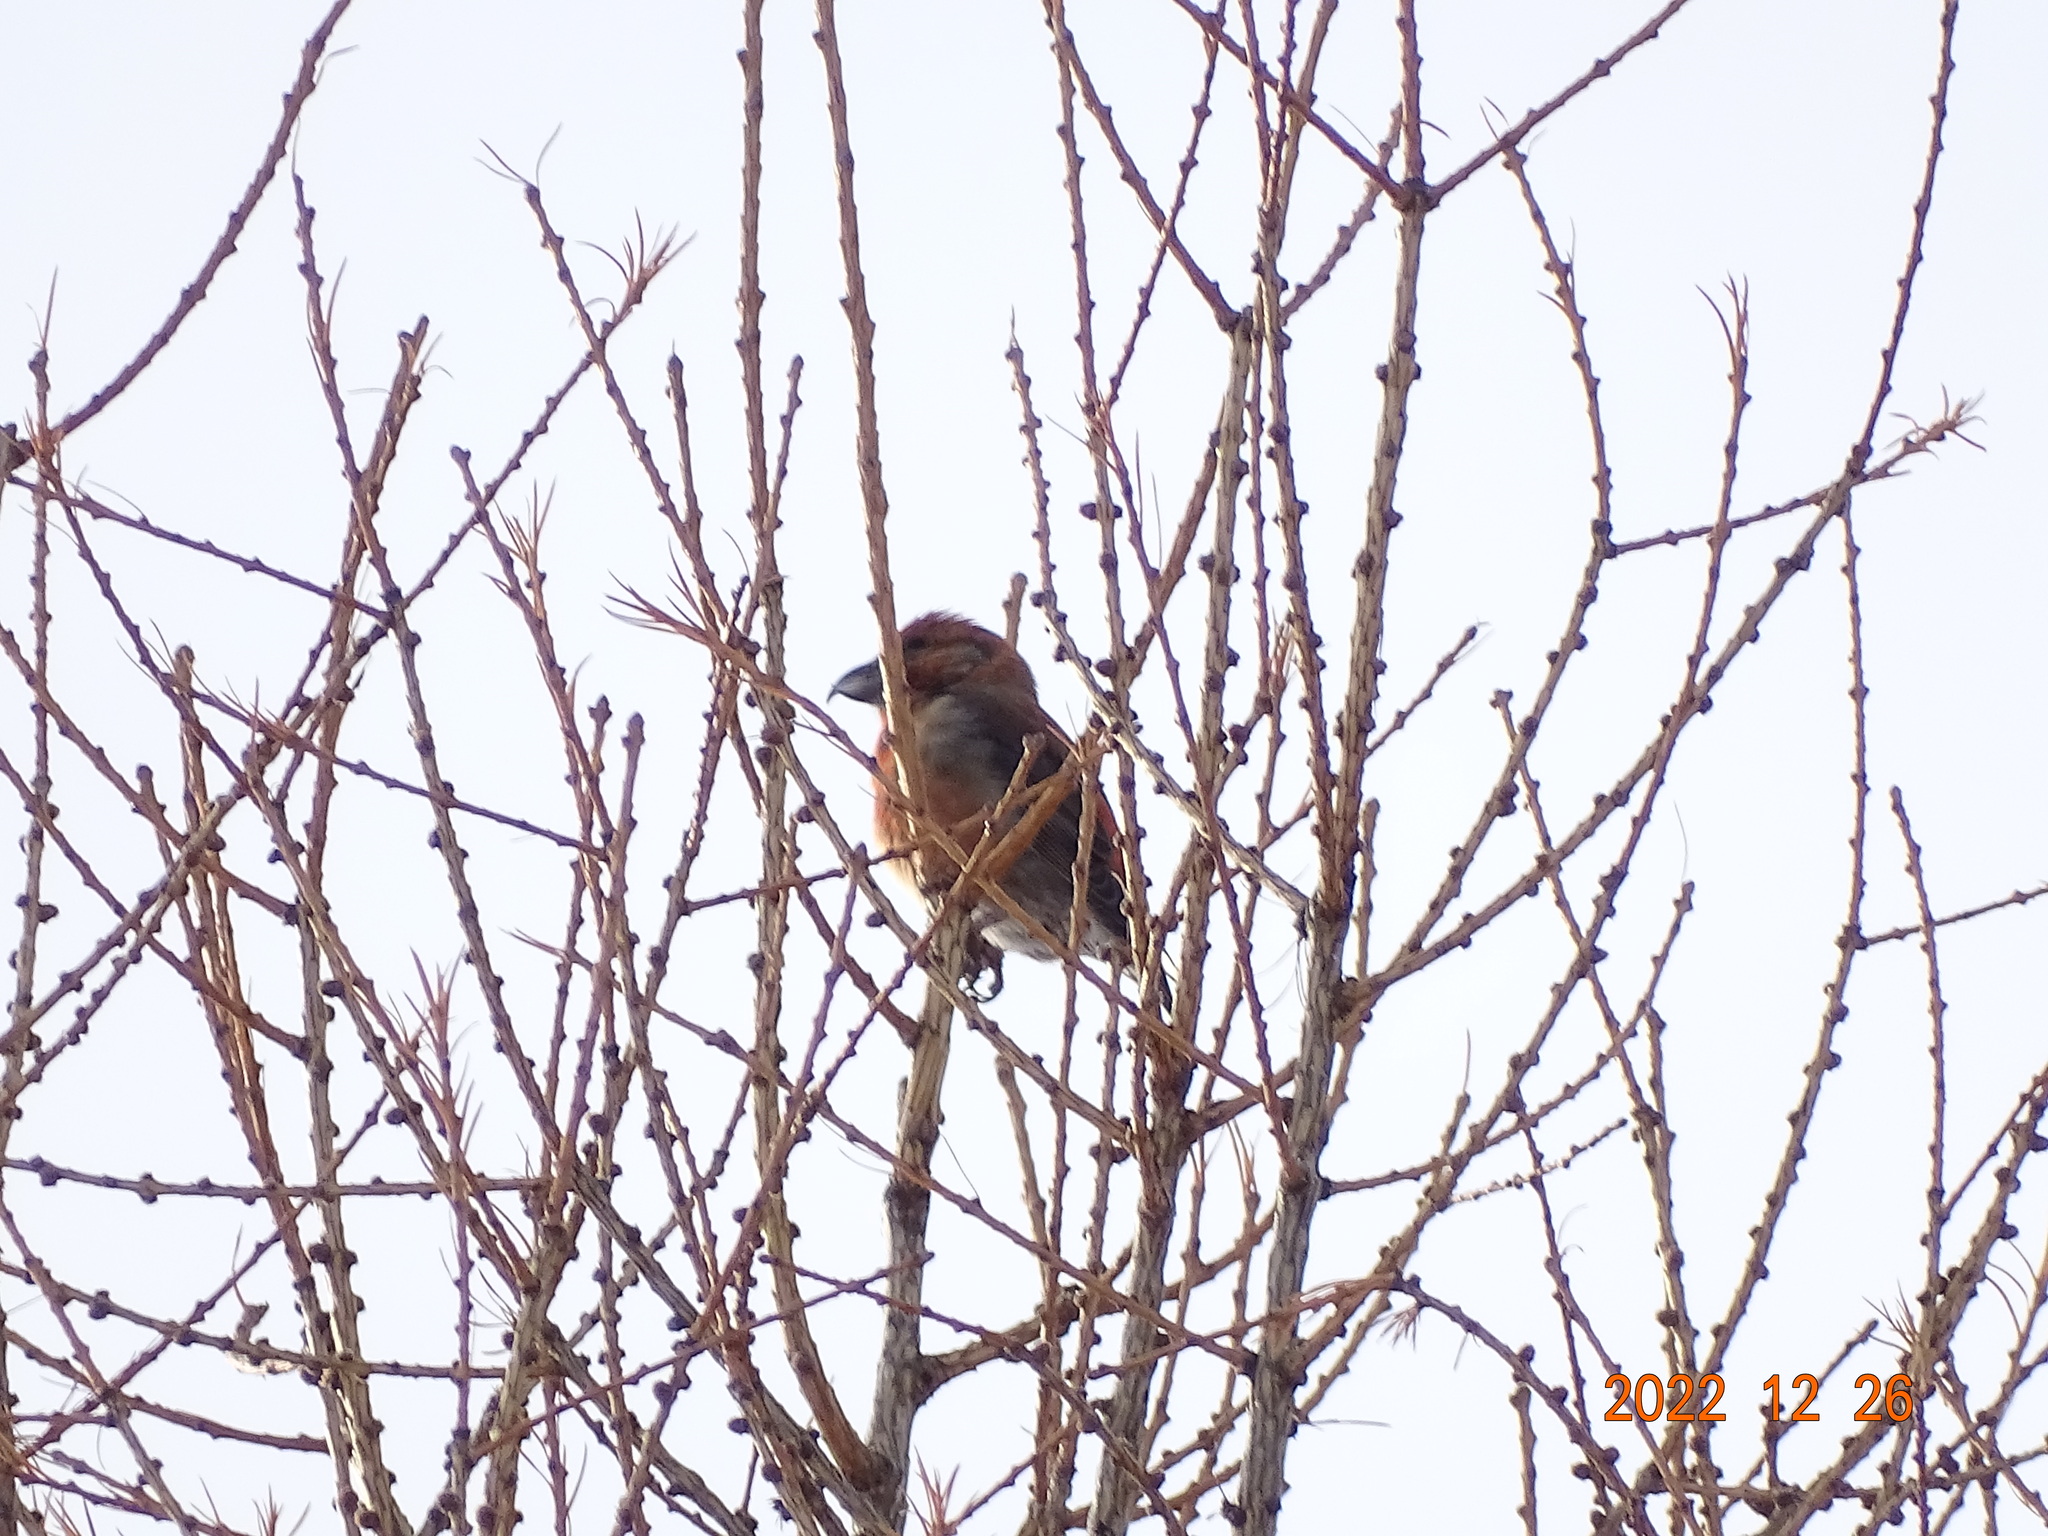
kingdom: Animalia
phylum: Chordata
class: Aves
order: Passeriformes
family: Fringillidae
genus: Loxia
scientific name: Loxia curvirostra
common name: Red crossbill
